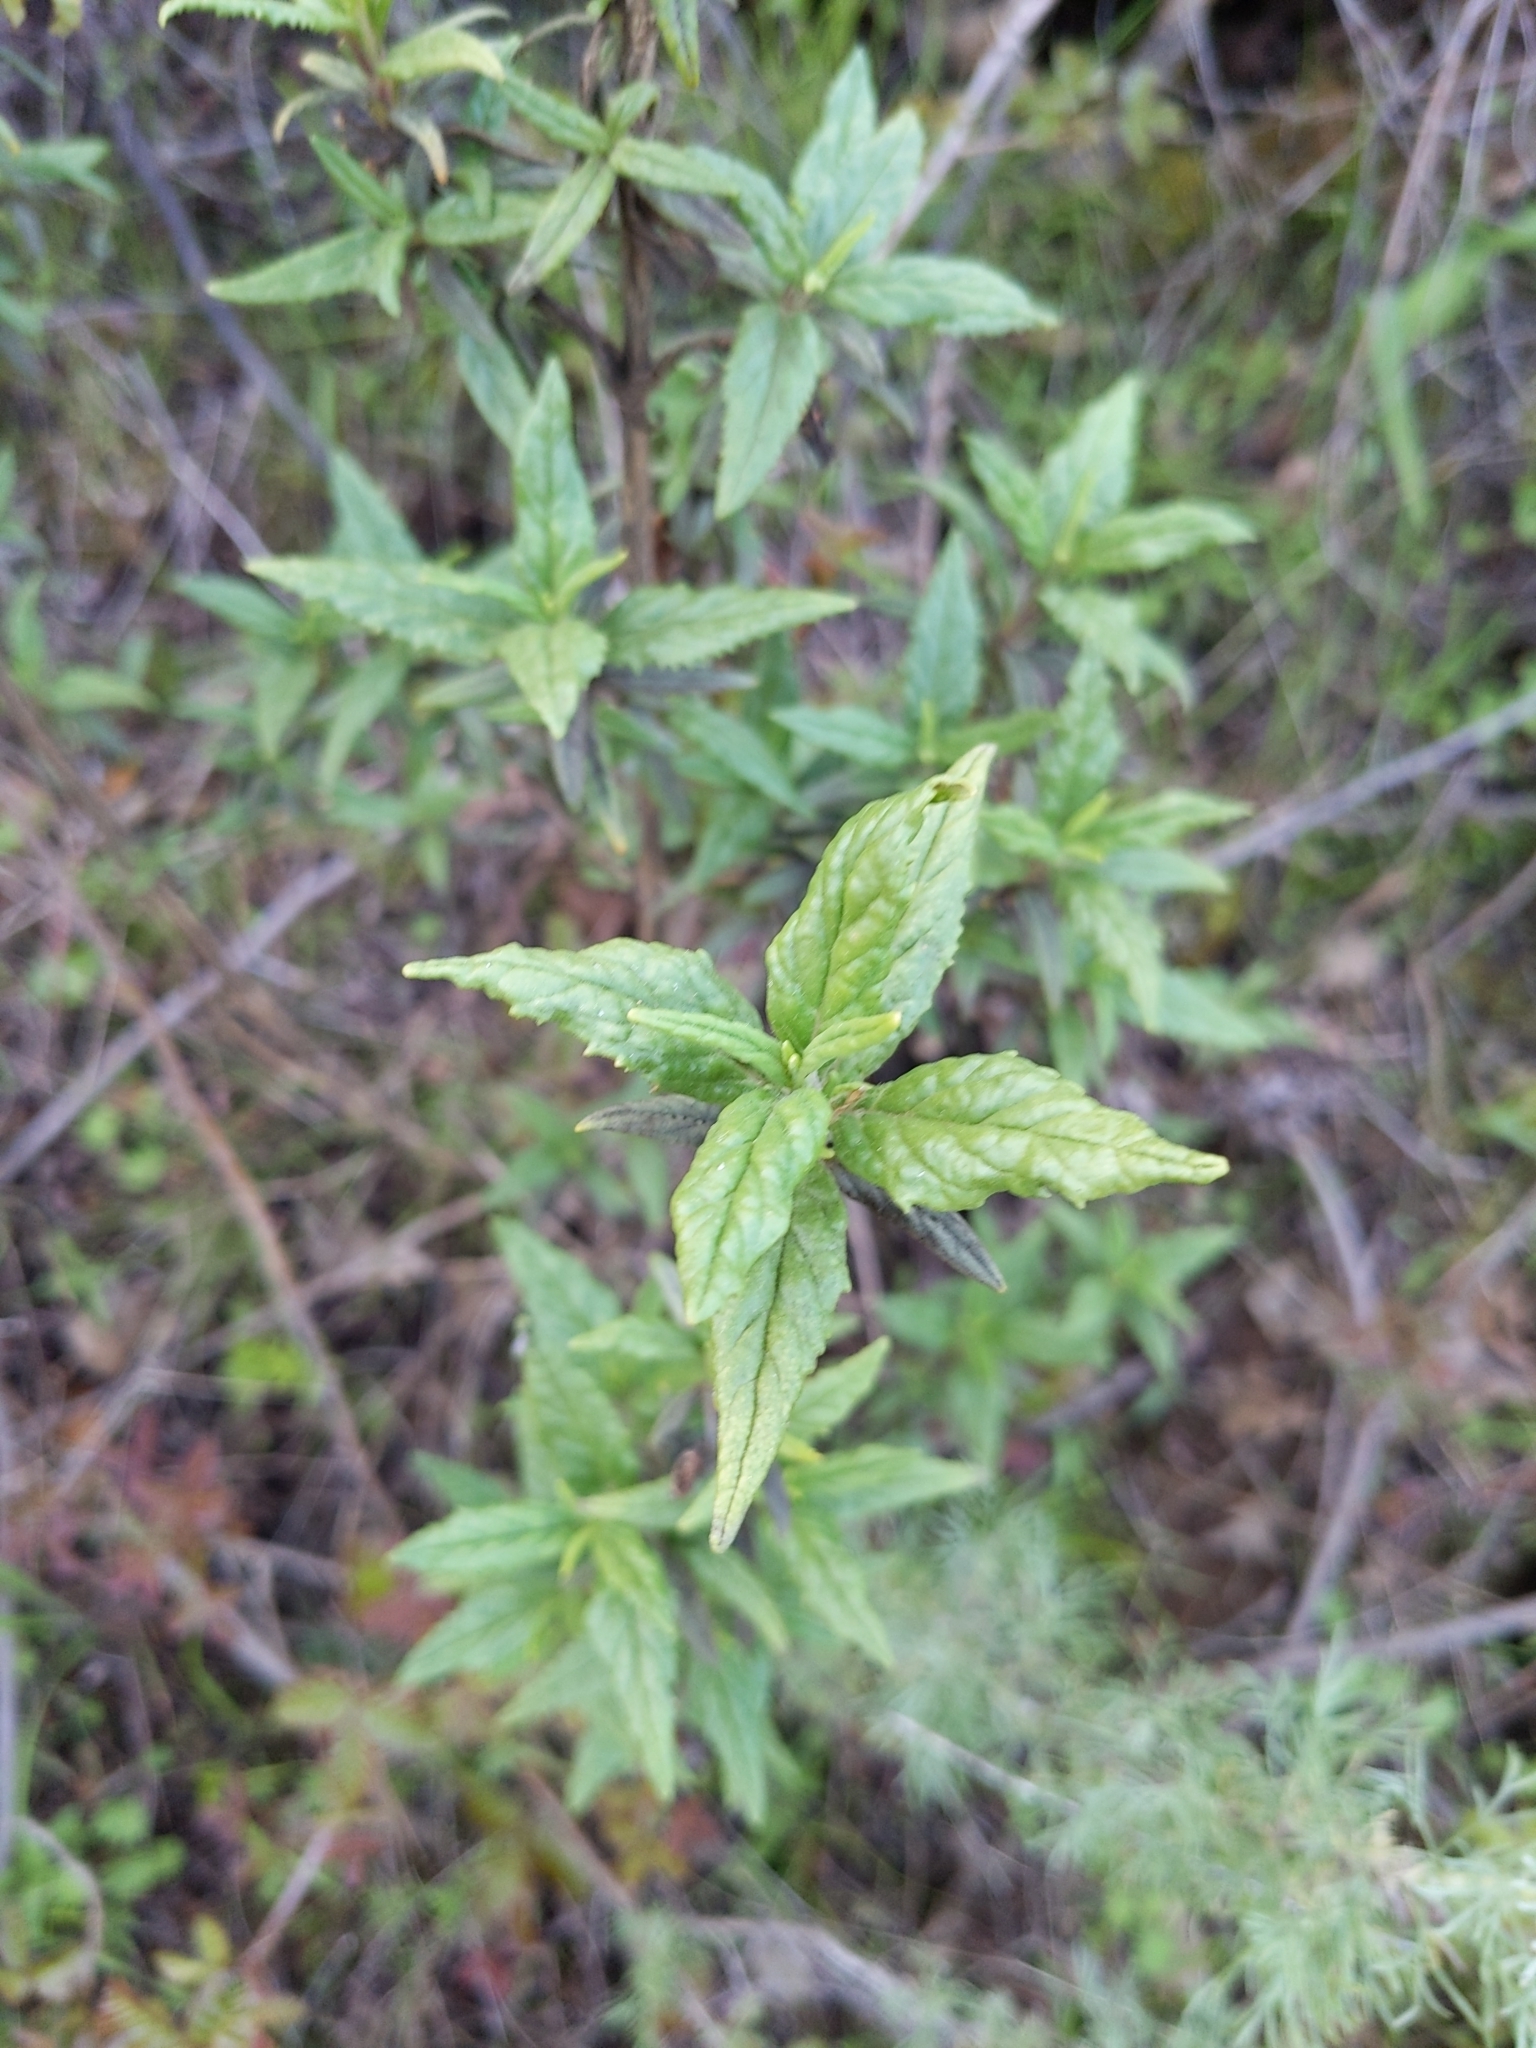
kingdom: Plantae
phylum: Tracheophyta
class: Magnoliopsida
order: Lamiales
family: Phrymaceae
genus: Diplacus
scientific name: Diplacus aurantiacus
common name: Bush monkey-flower
